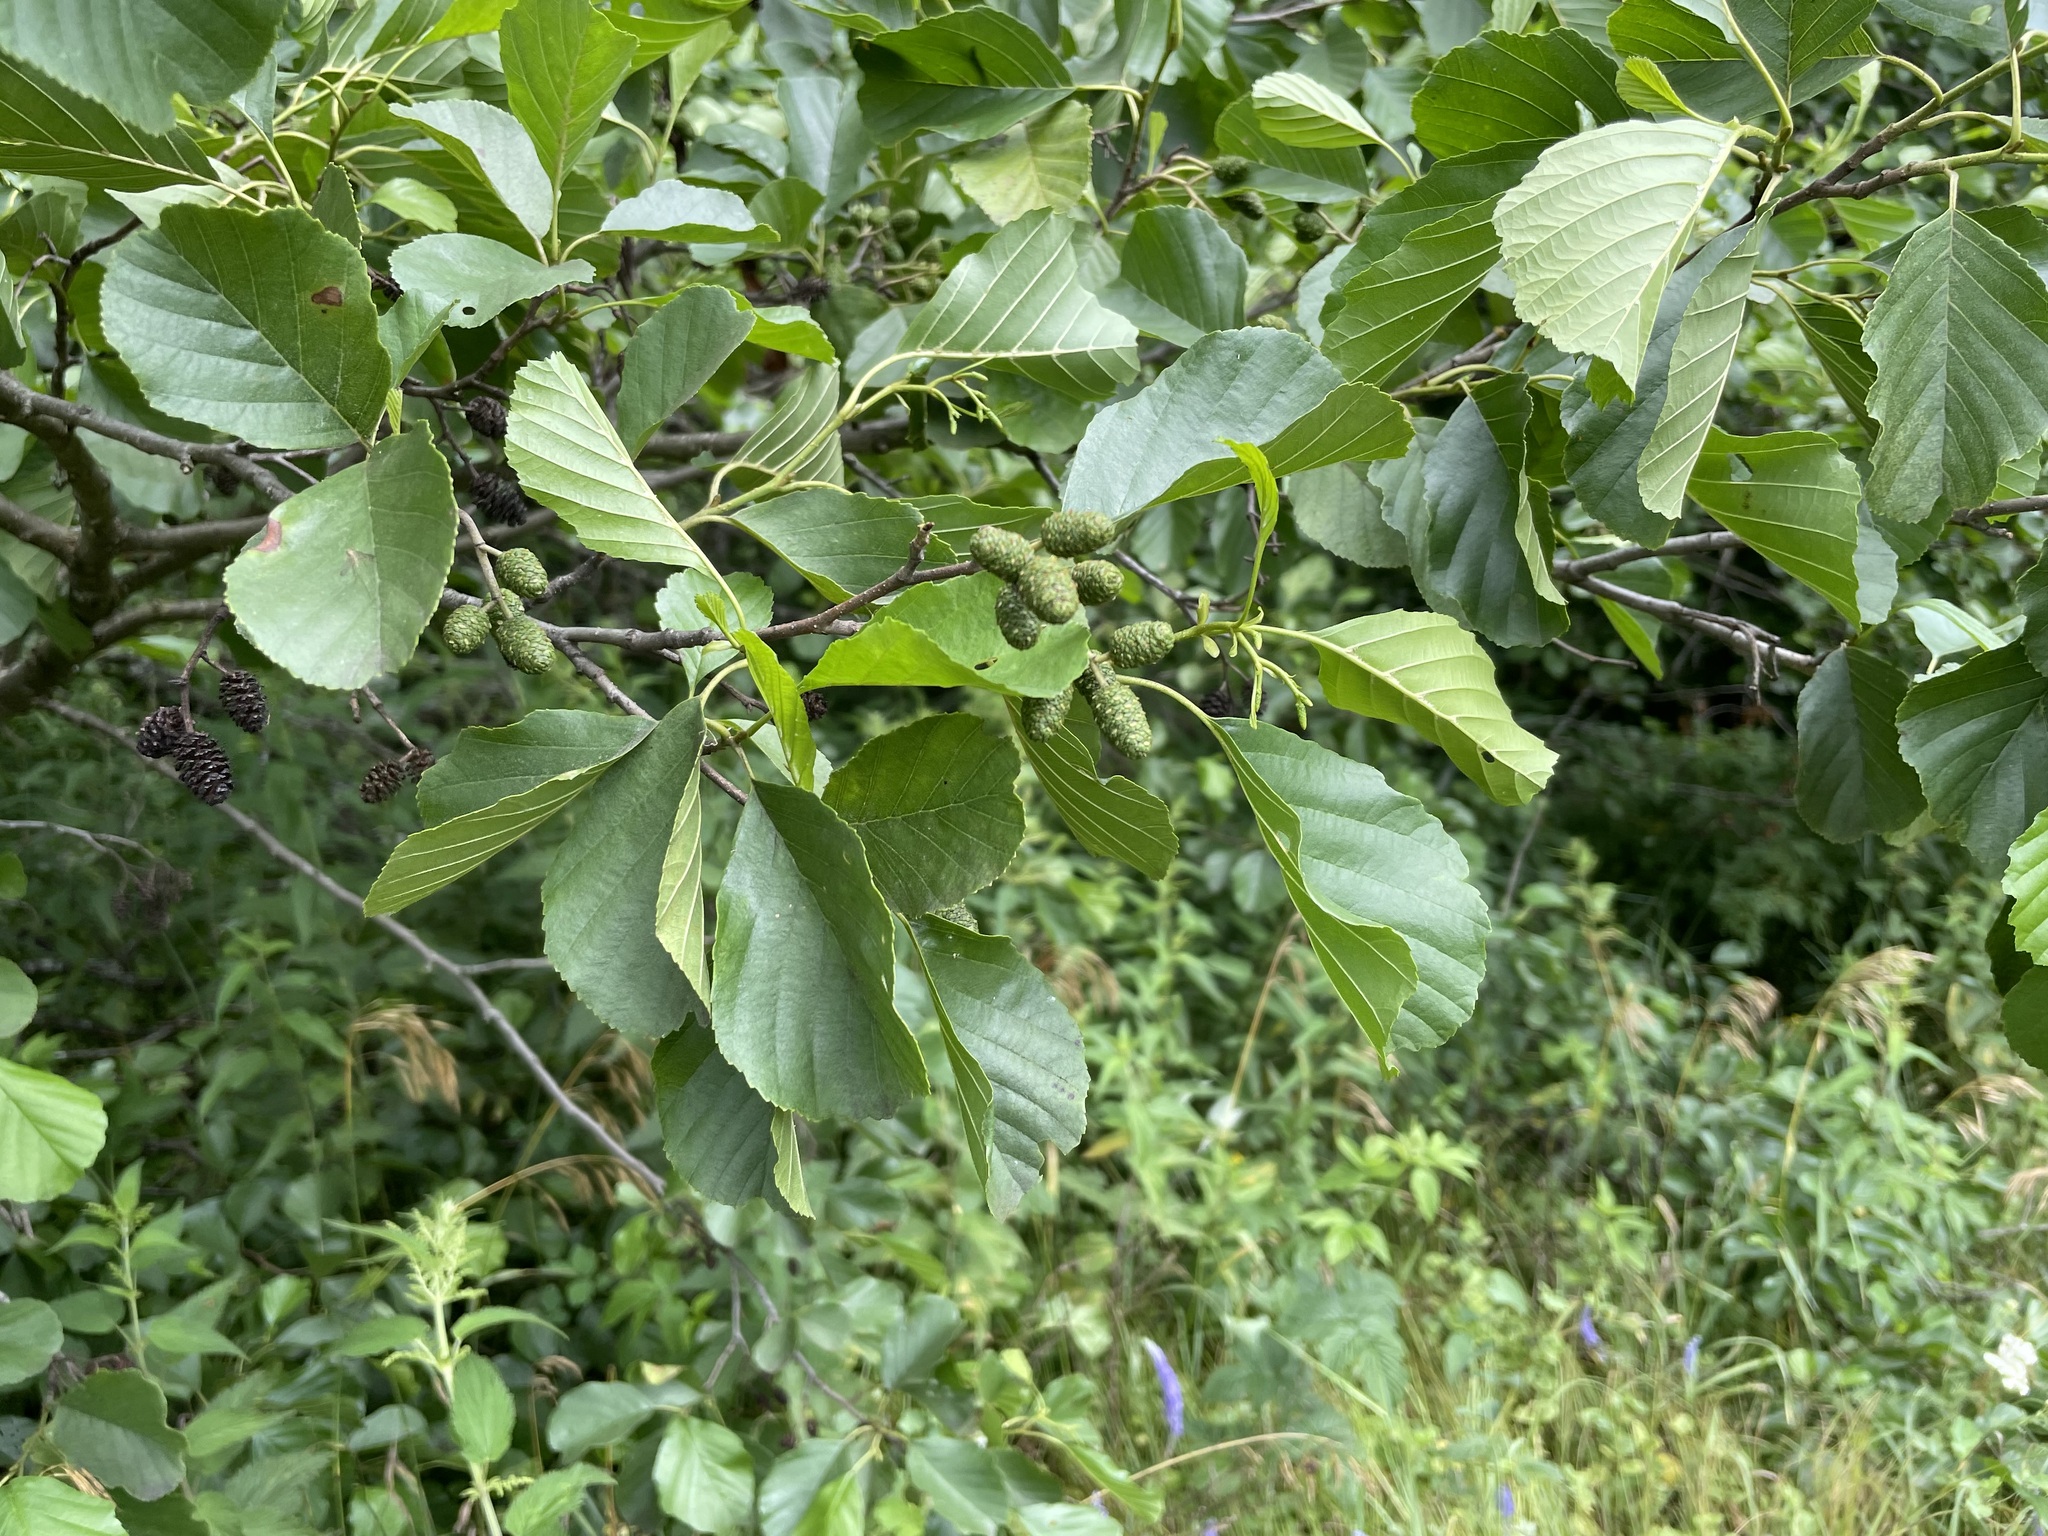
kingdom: Plantae
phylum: Tracheophyta
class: Magnoliopsida
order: Fagales
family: Betulaceae
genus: Alnus
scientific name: Alnus glutinosa
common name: Black alder
